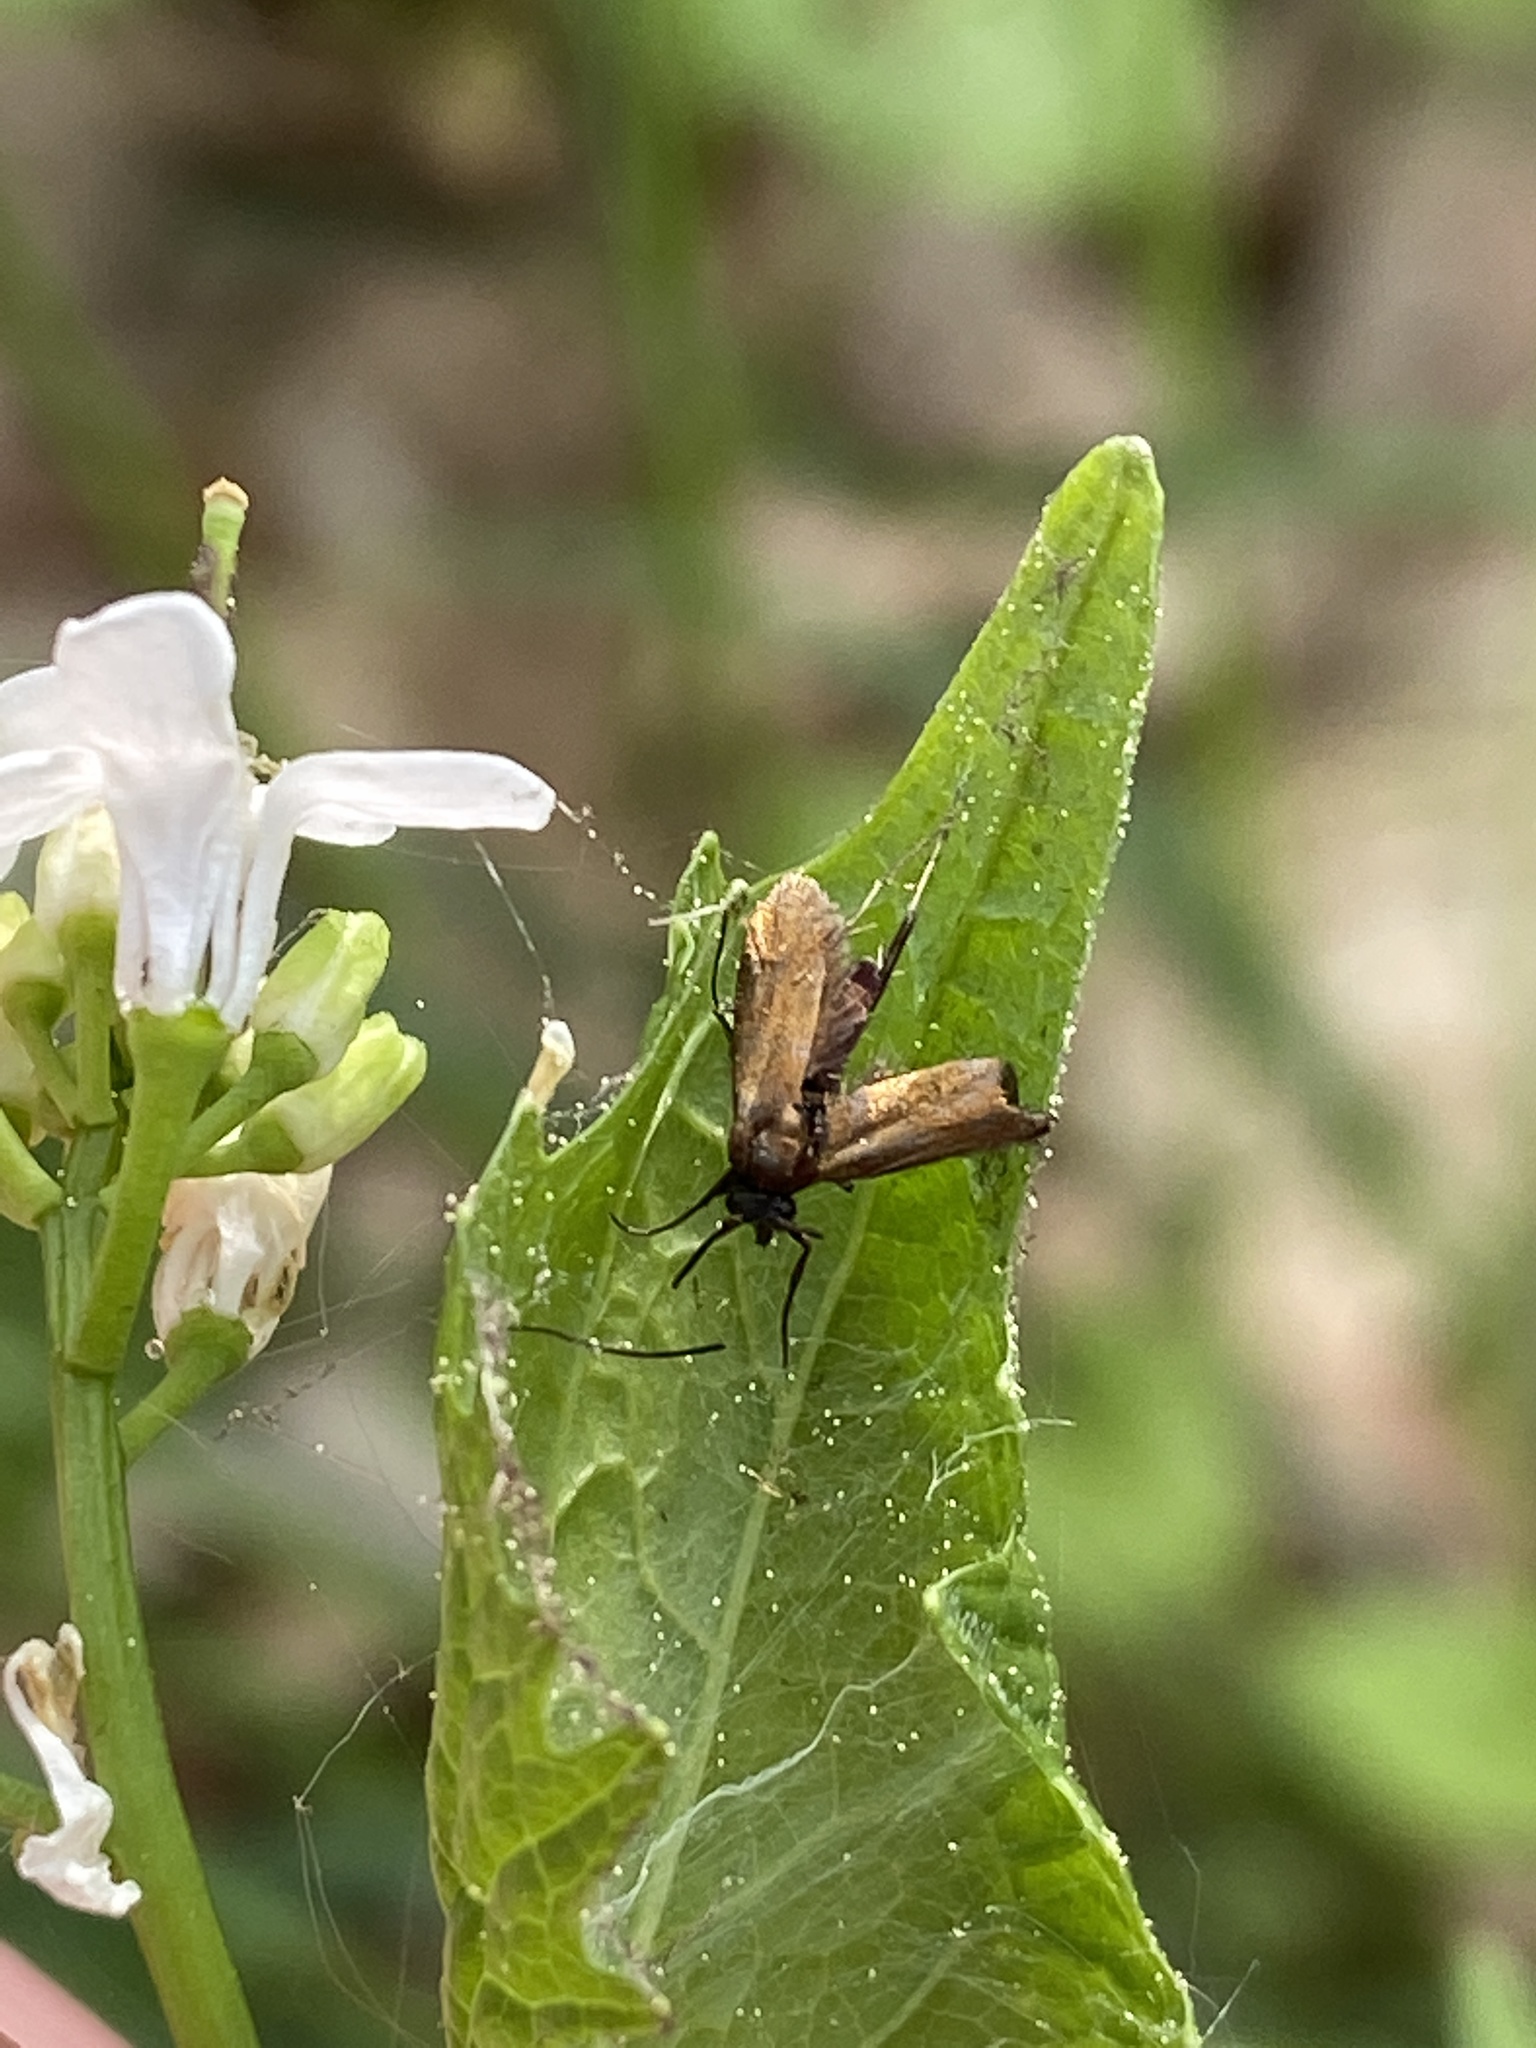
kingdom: Animalia
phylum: Arthropoda
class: Insecta
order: Lepidoptera
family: Adelidae
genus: Cauchas
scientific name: Cauchas rufimitrella
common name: Meadow long-horn
